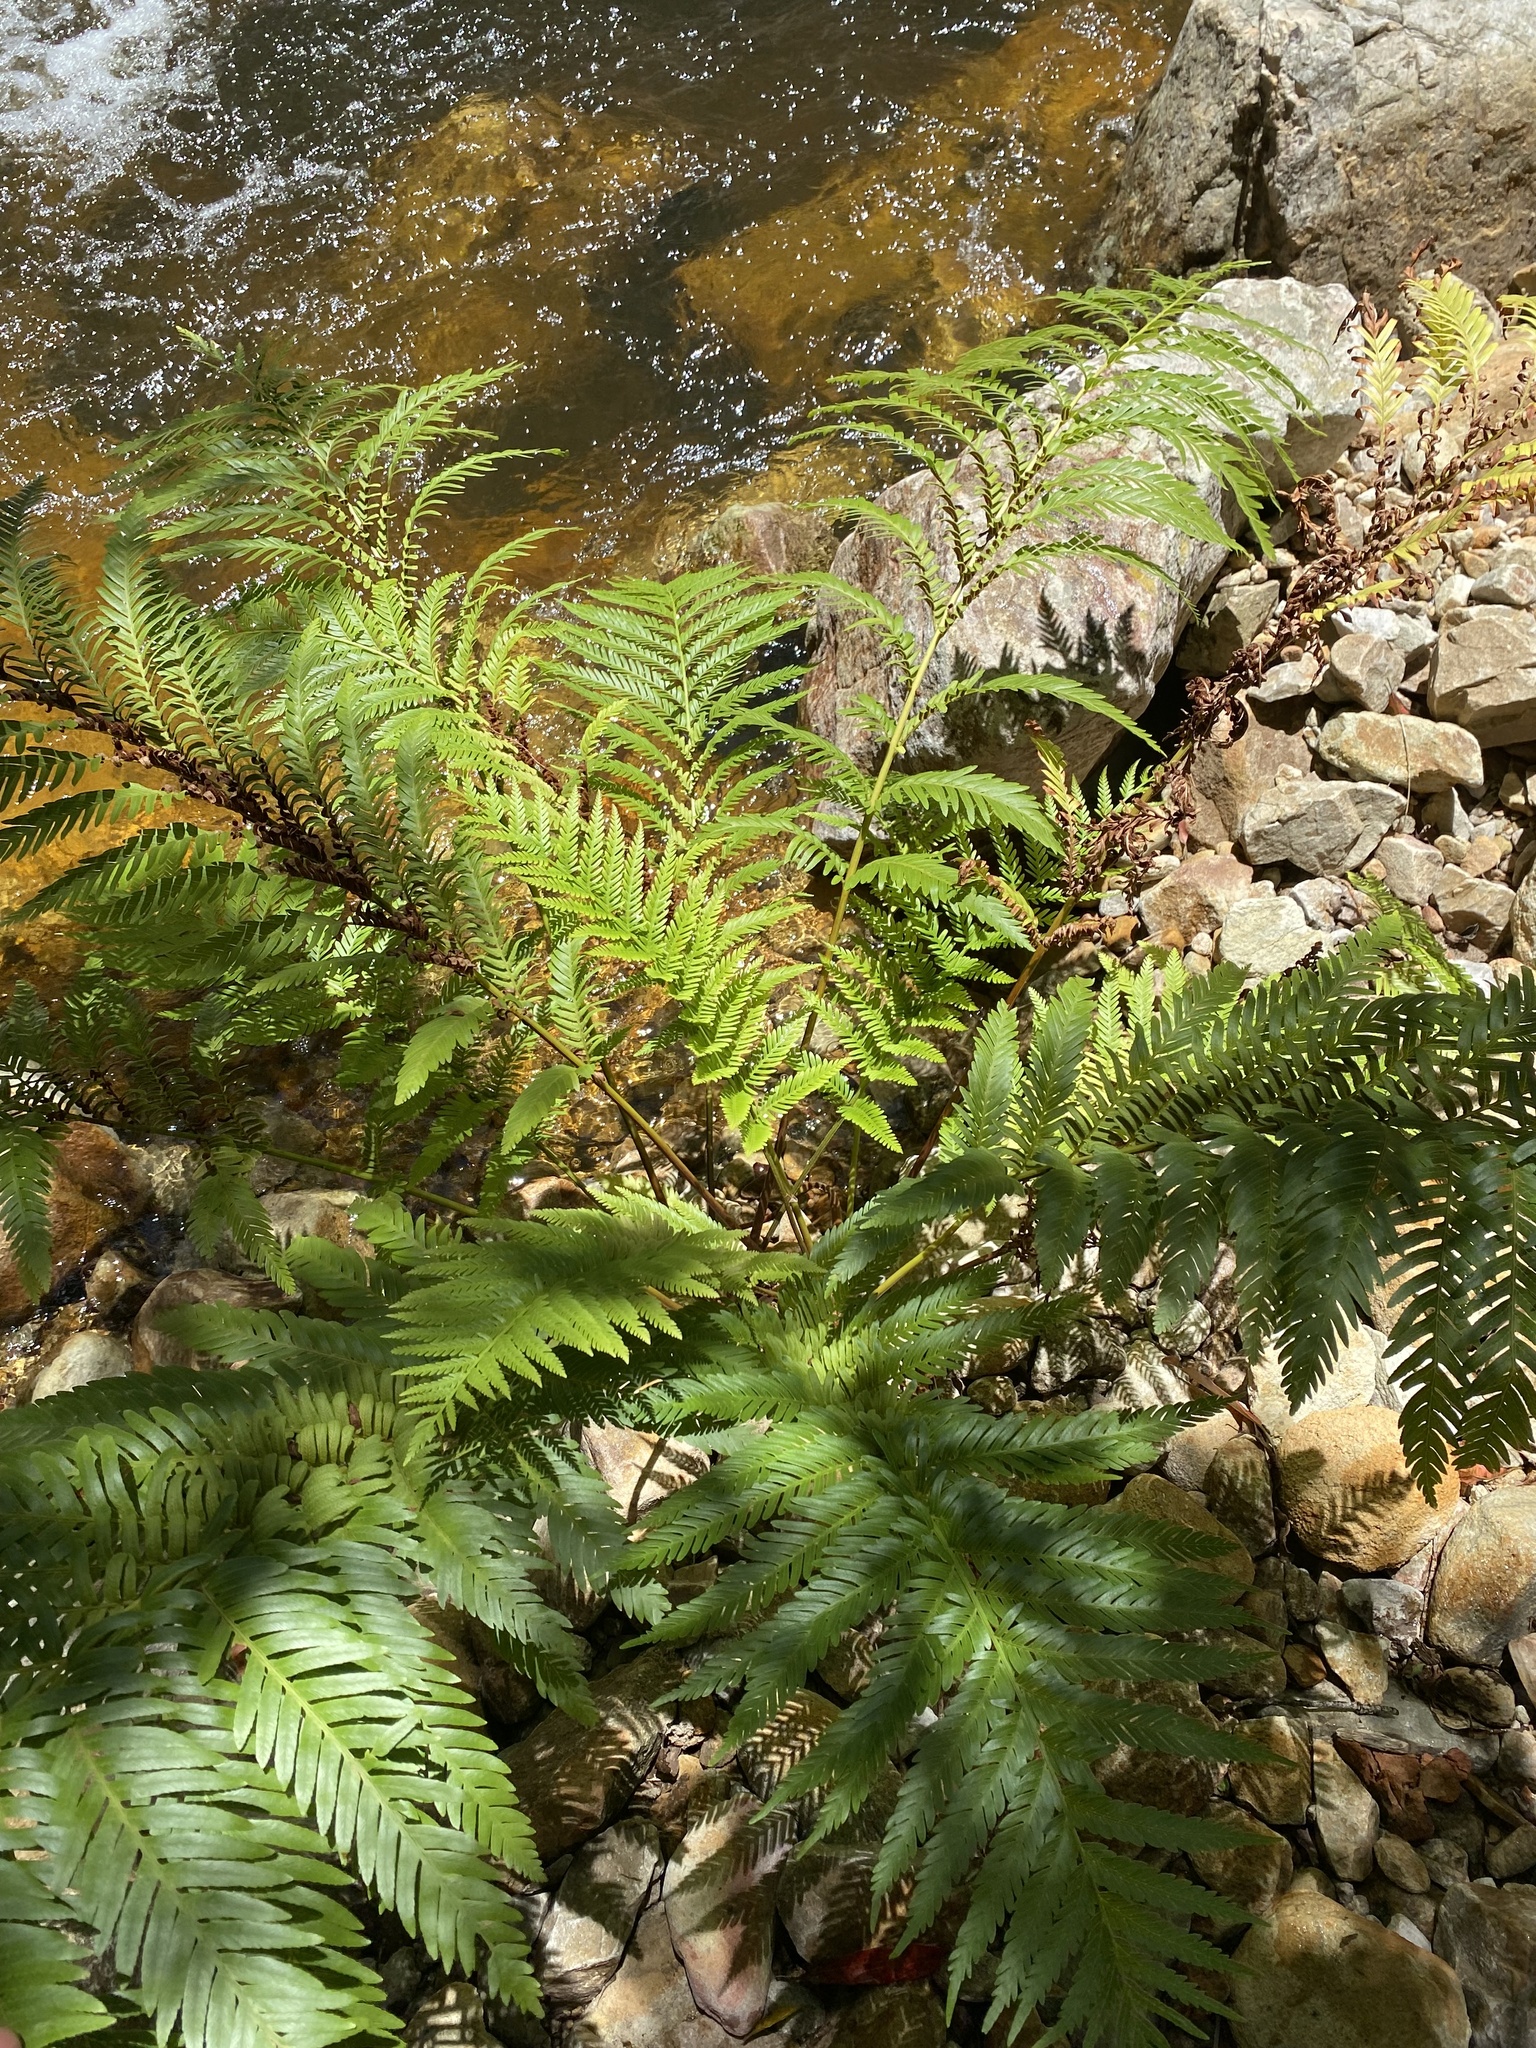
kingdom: Plantae
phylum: Tracheophyta
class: Polypodiopsida
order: Osmundales
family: Osmundaceae
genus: Todea
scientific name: Todea barbara
